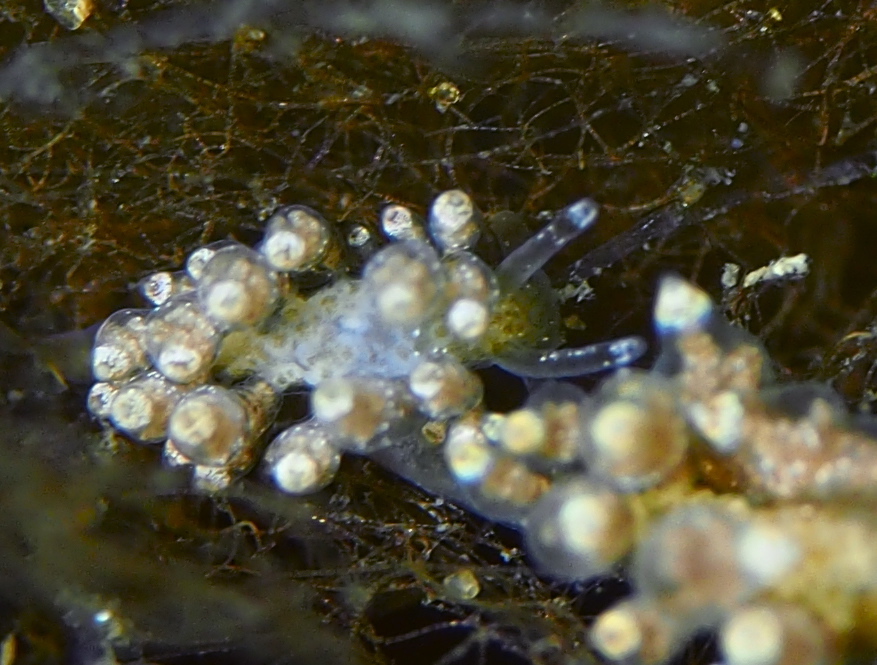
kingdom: Animalia
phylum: Mollusca
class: Gastropoda
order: Nudibranchia
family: Eubranchidae
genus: Eubranchus
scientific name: Eubranchus exiguus
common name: Balloon aeolis
